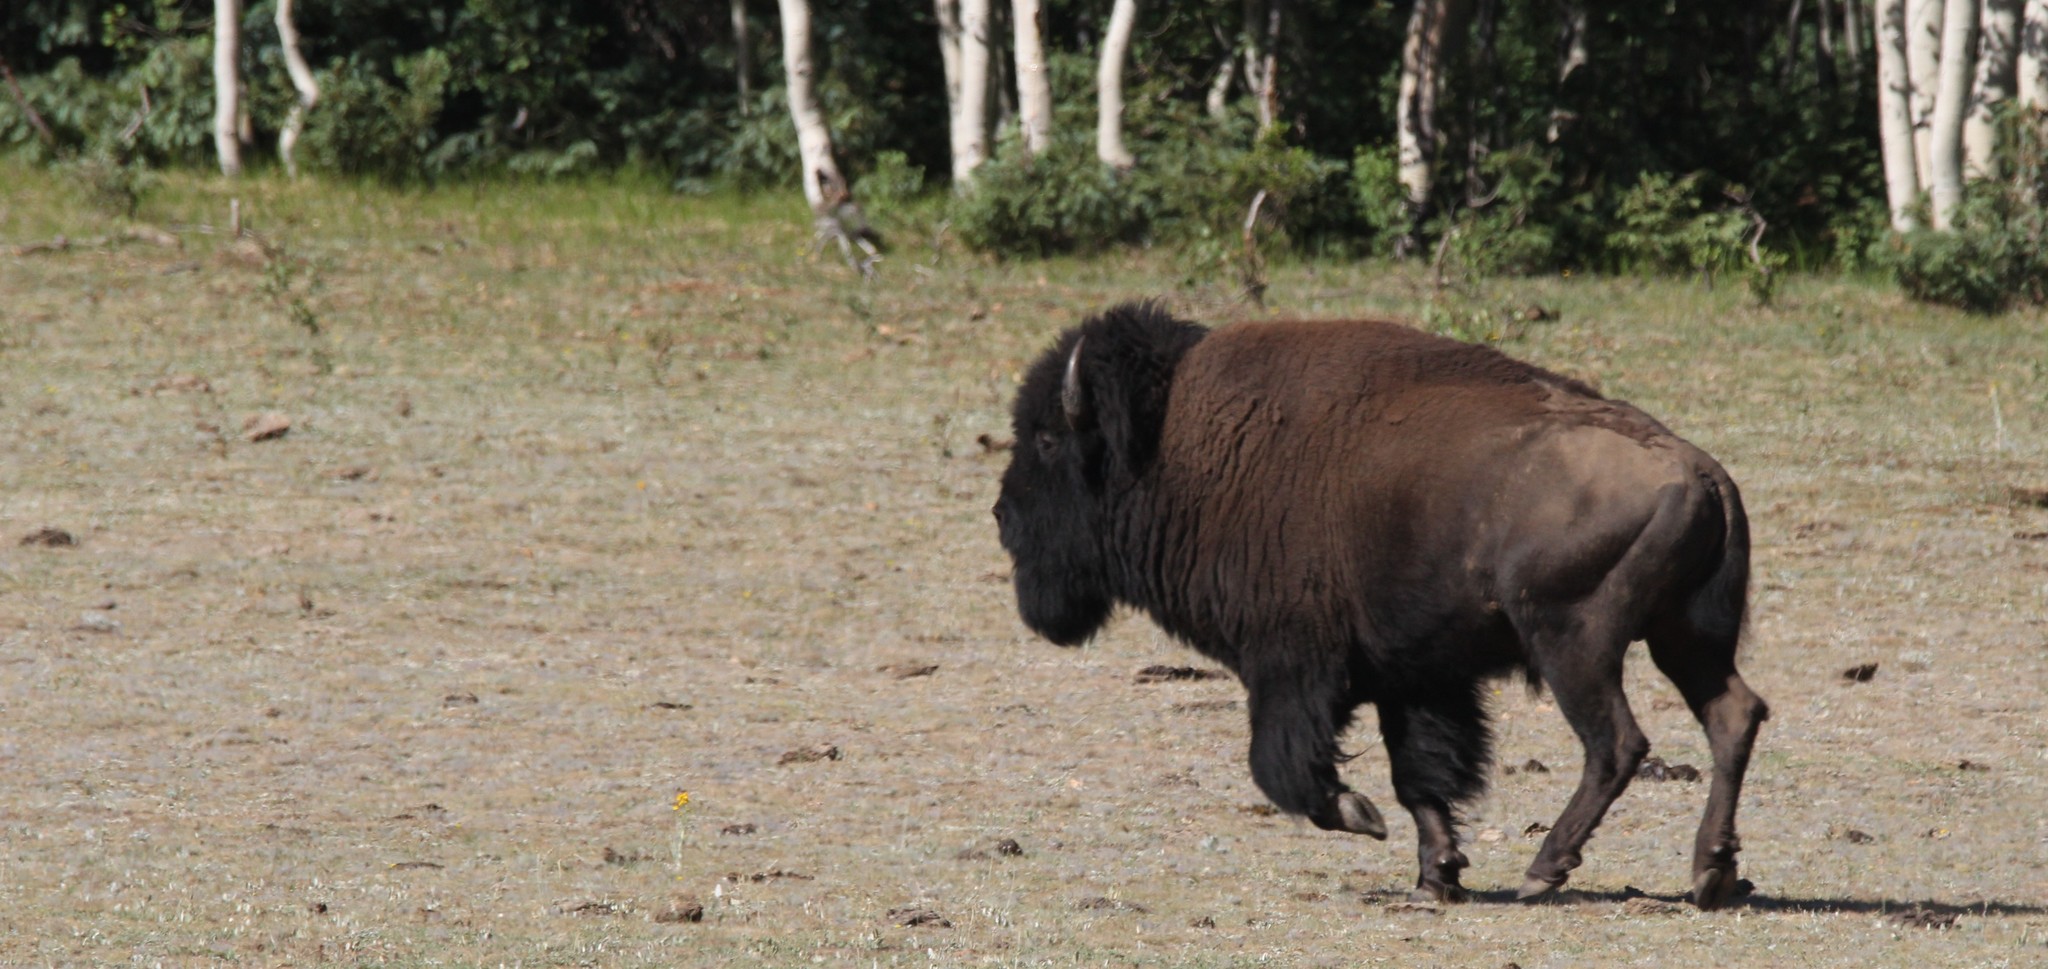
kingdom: Animalia
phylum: Chordata
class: Mammalia
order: Artiodactyla
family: Bovidae
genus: Bison
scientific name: Bison bison
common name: American bison
